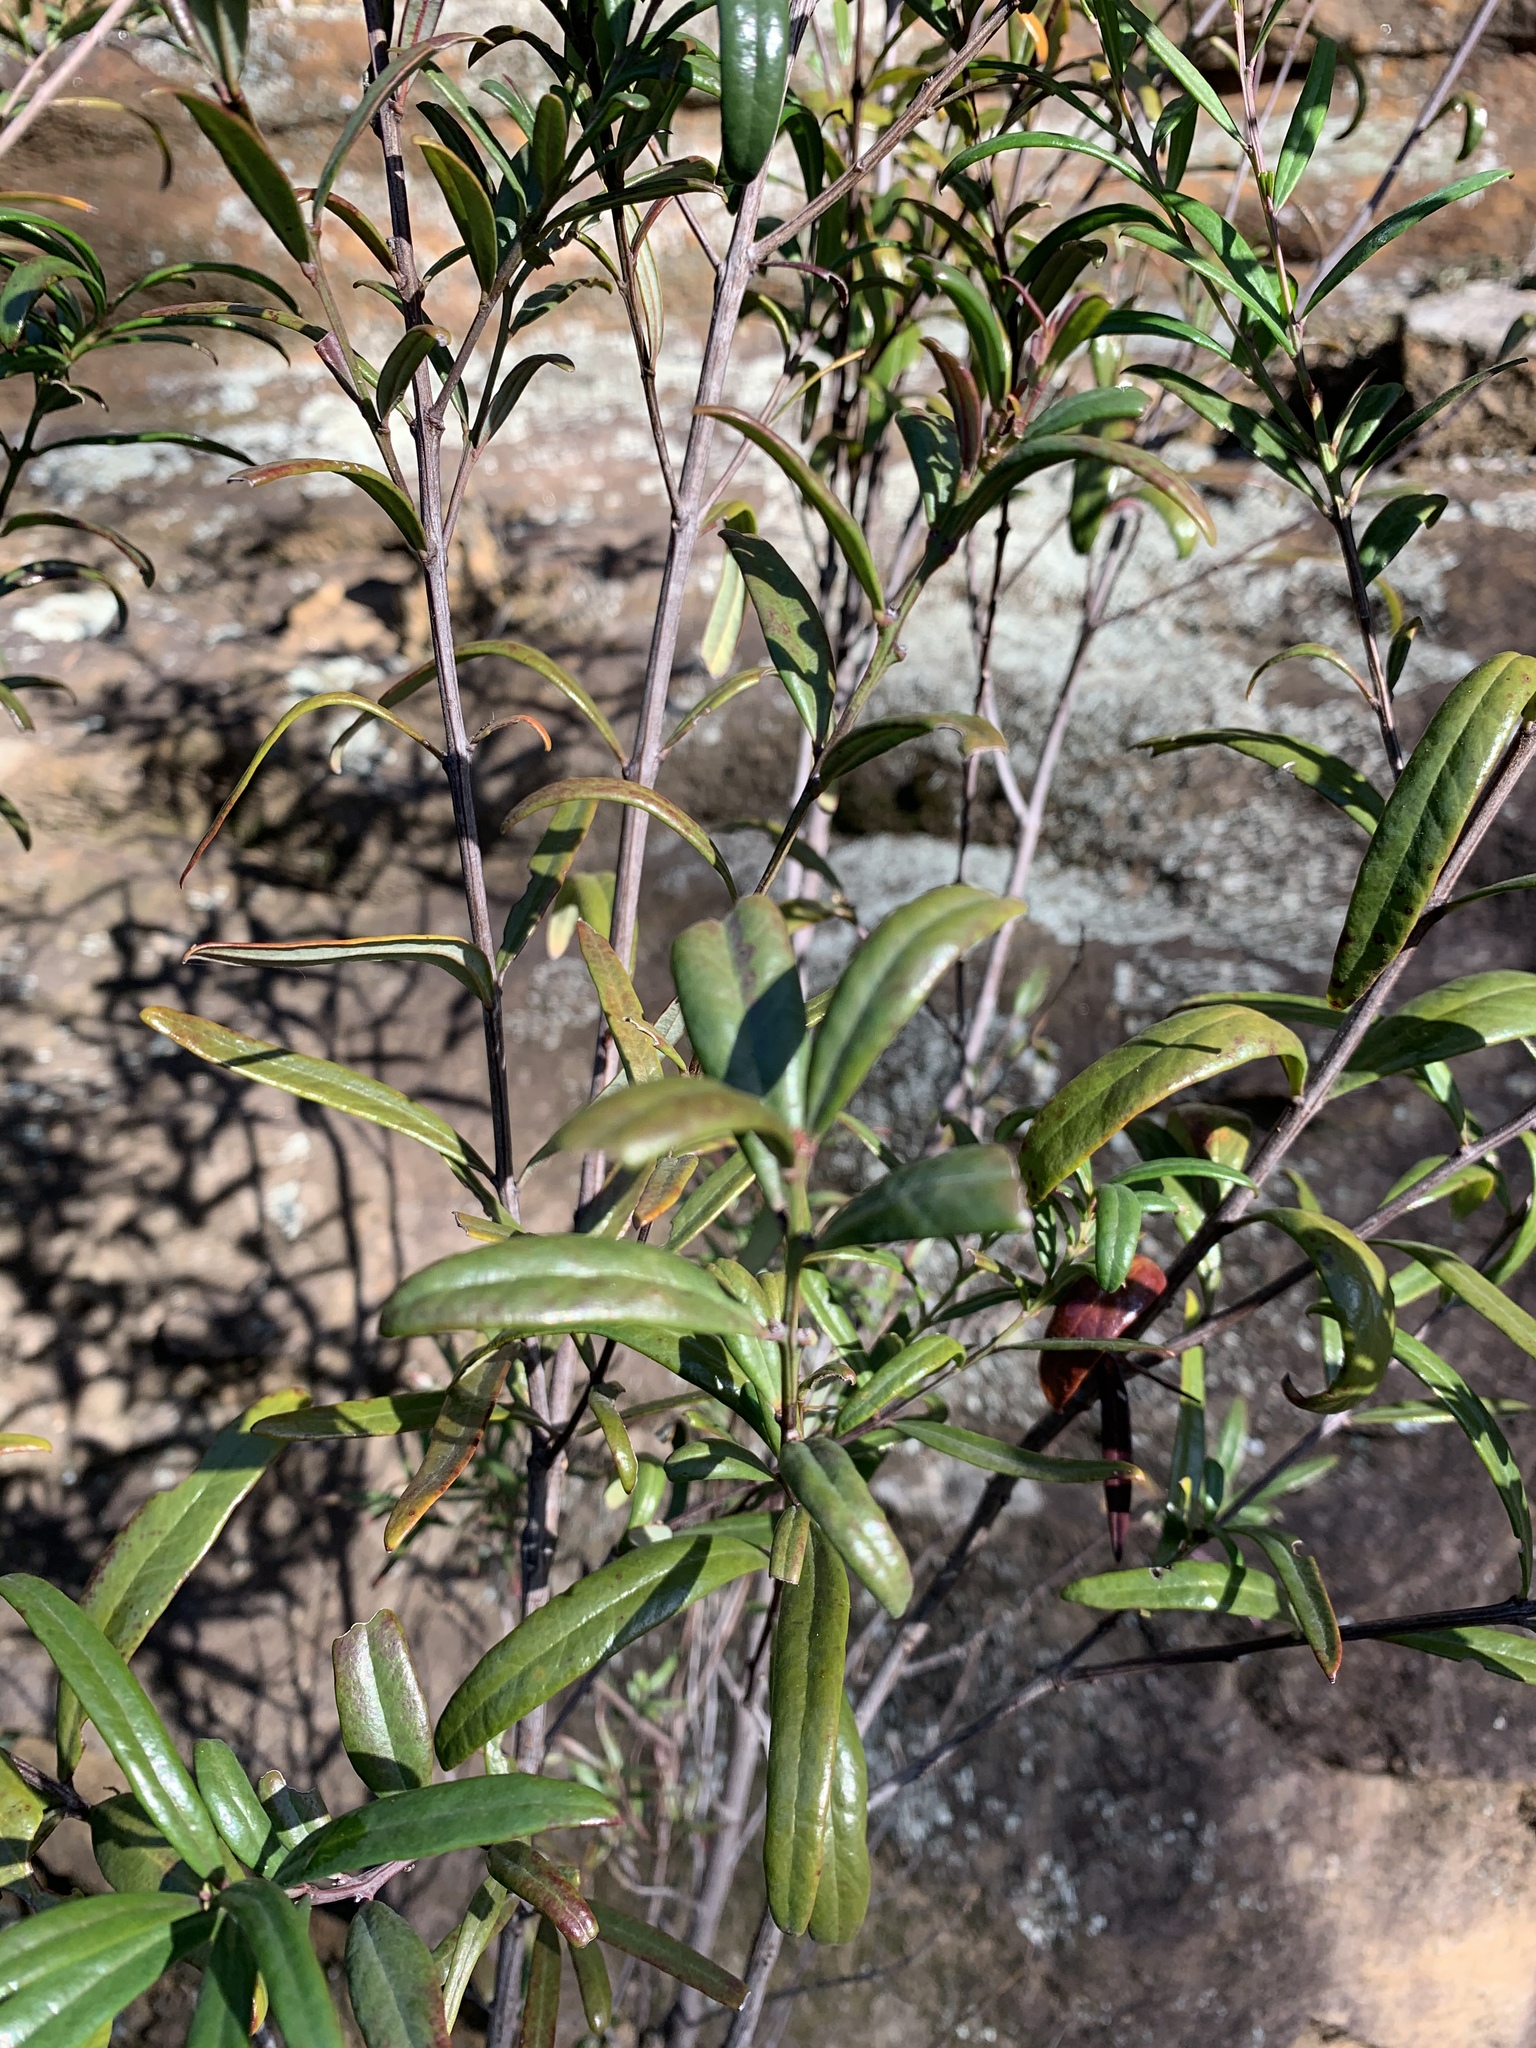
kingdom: Plantae
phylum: Tracheophyta
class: Magnoliopsida
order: Santalales
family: Santalaceae
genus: Santalum
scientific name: Santalum obtusifolium
